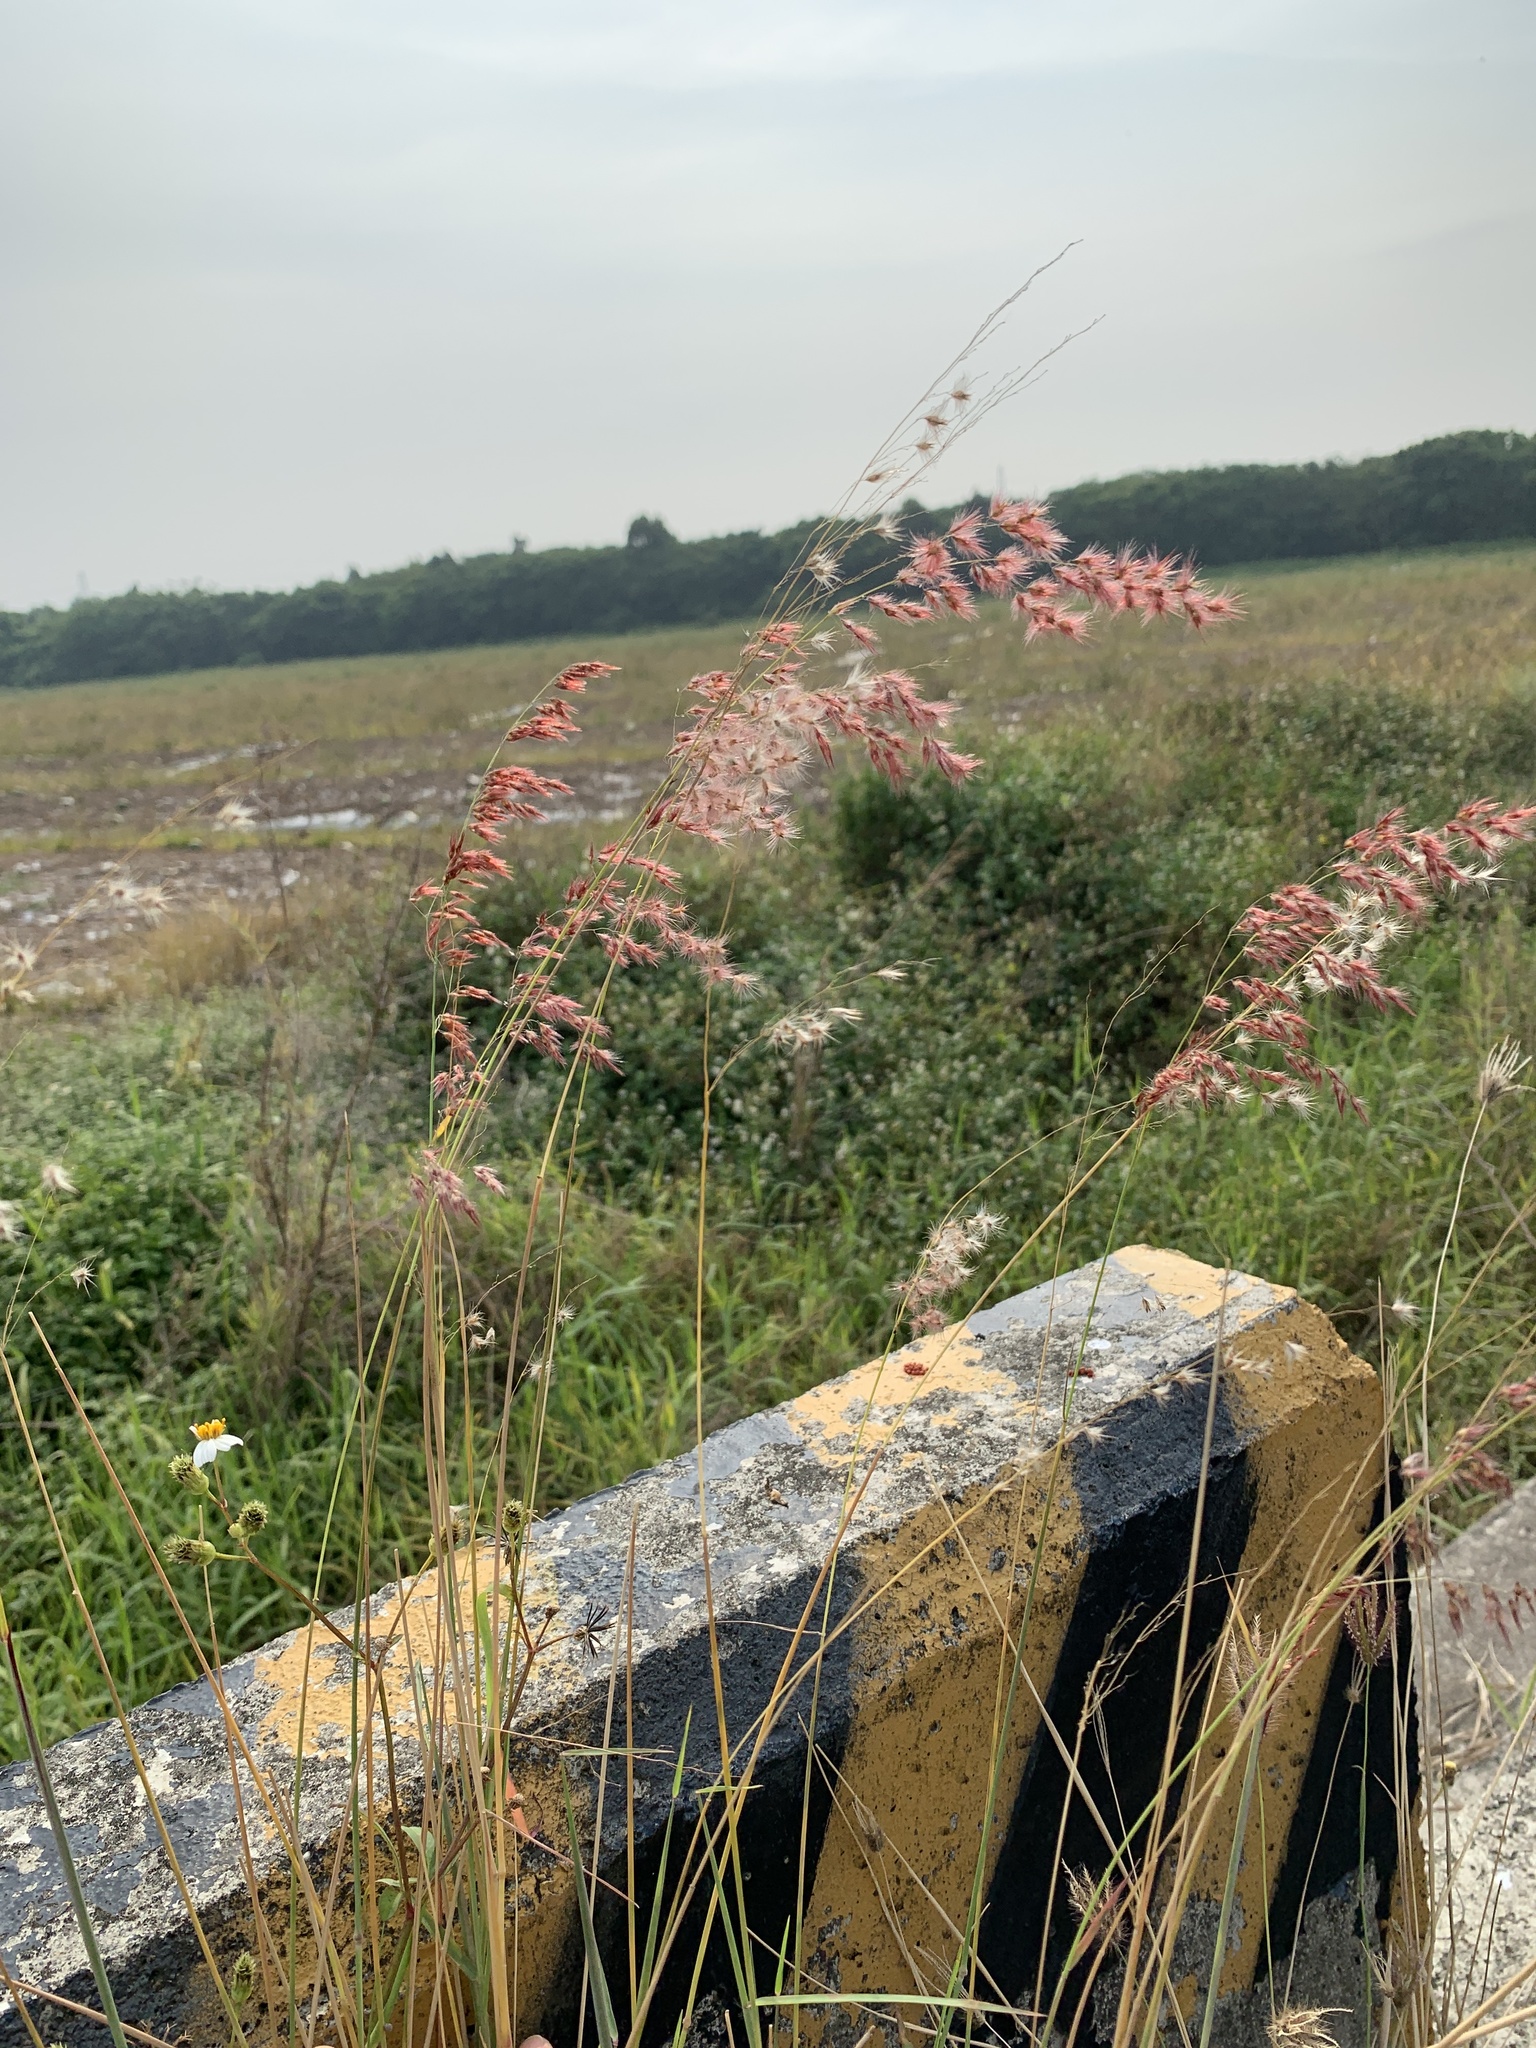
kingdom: Plantae
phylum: Tracheophyta
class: Liliopsida
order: Poales
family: Poaceae
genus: Melinis
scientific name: Melinis repens
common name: Rose natal grass
